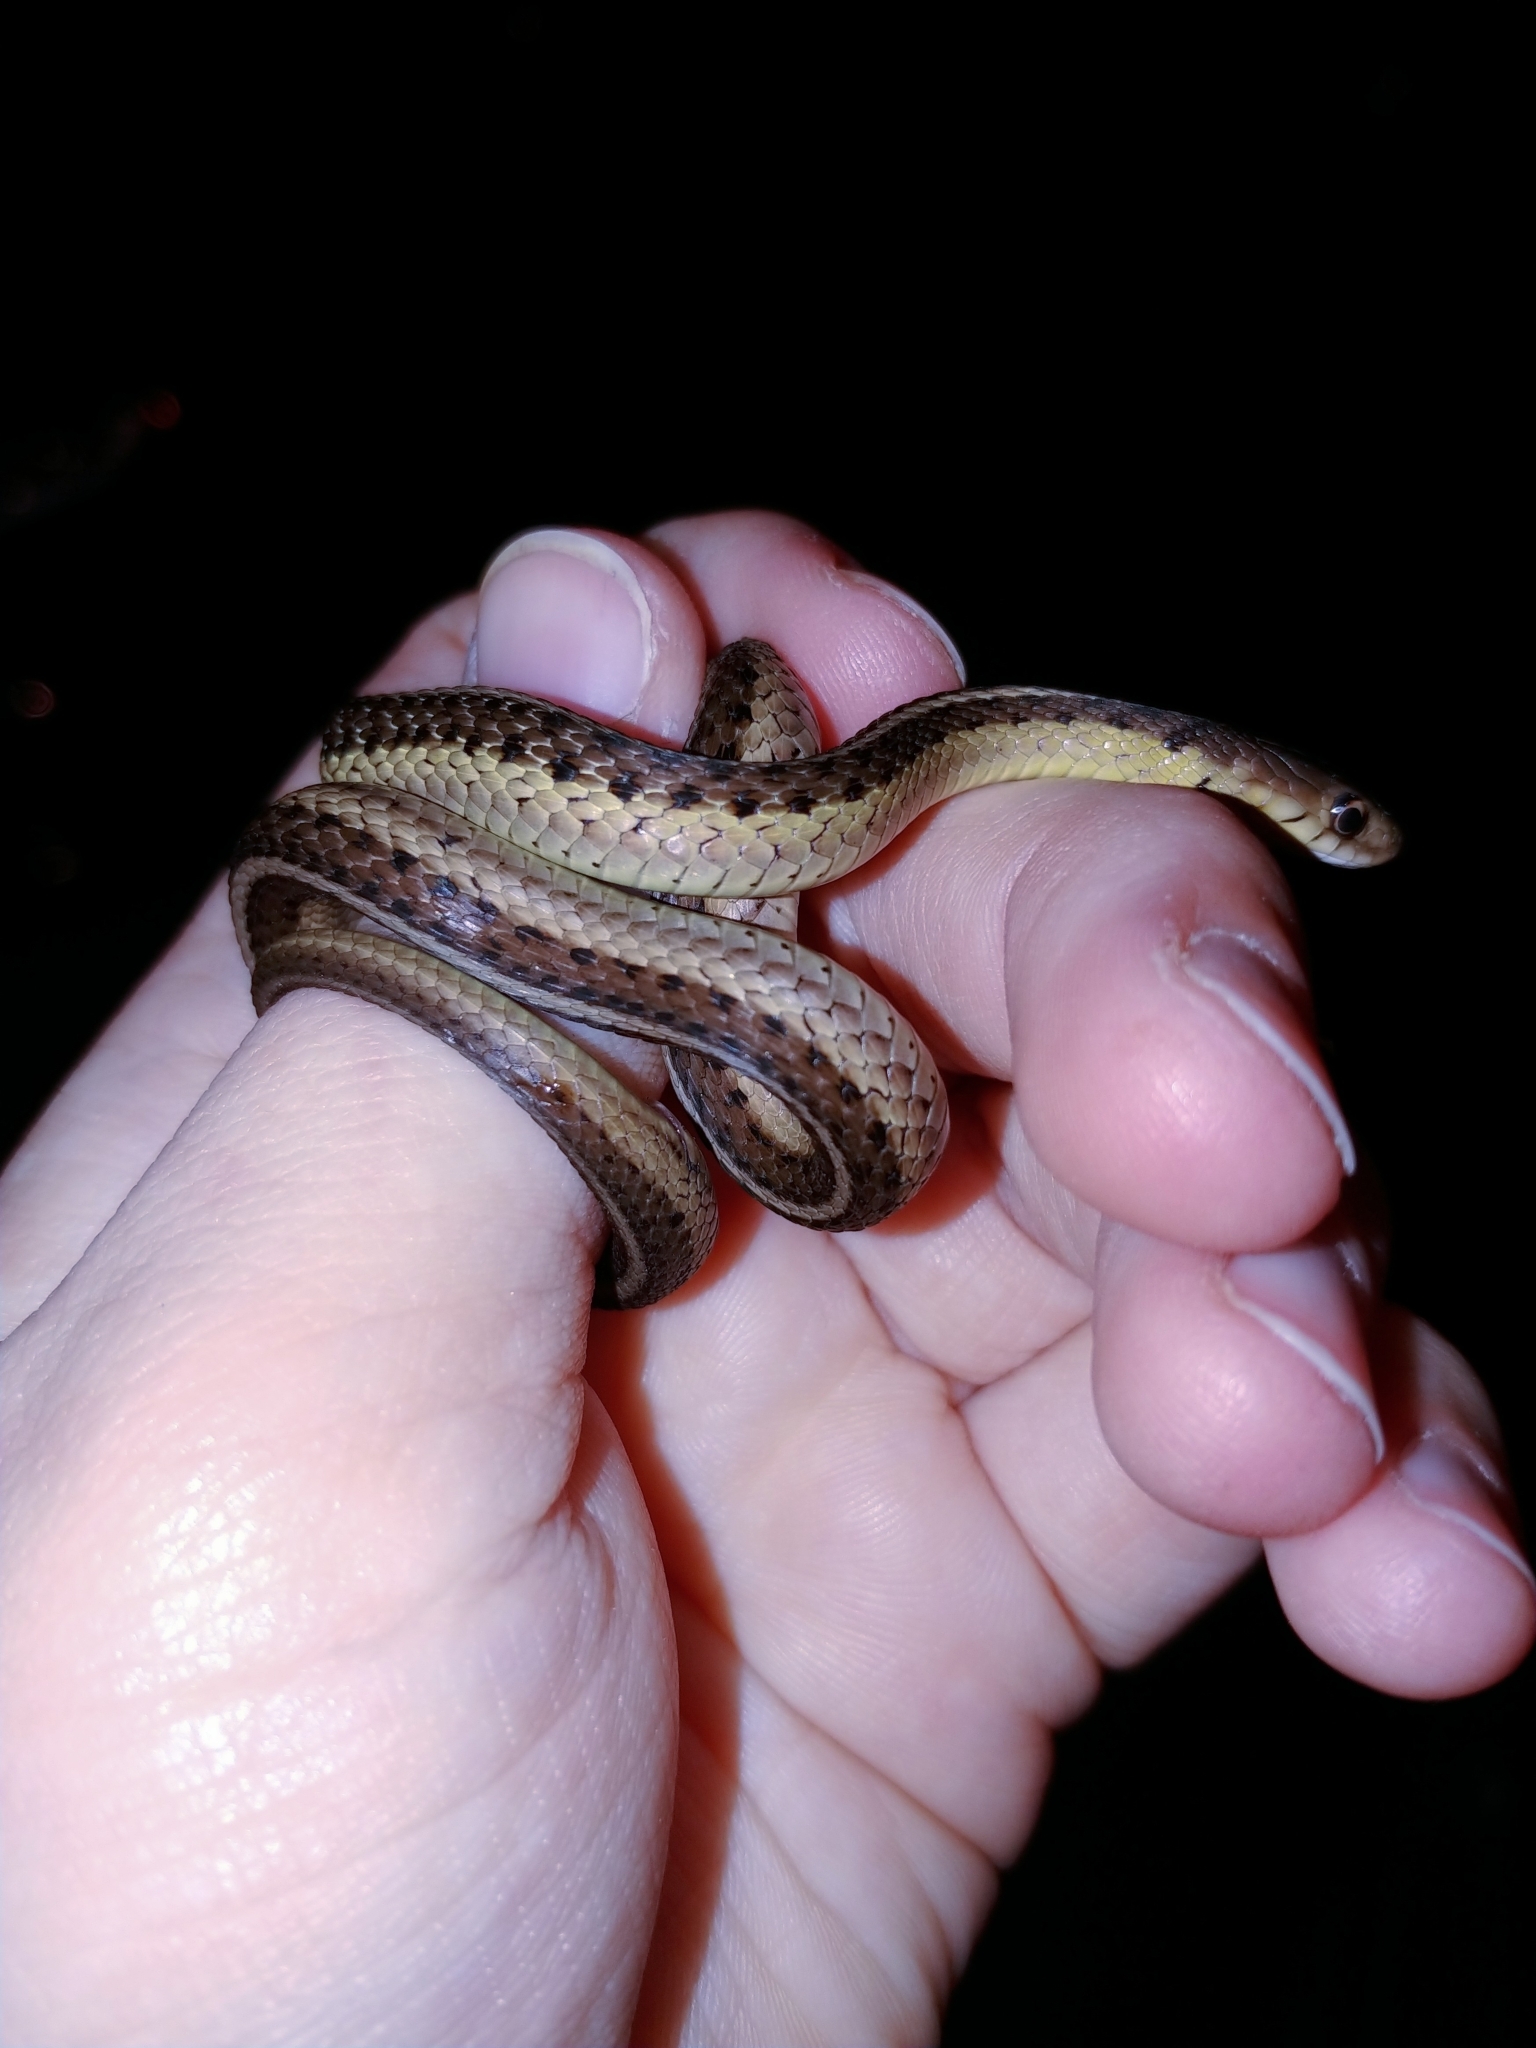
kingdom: Animalia
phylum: Chordata
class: Squamata
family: Colubridae
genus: Thamnophis
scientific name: Thamnophis sirtalis
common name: Common garter snake
